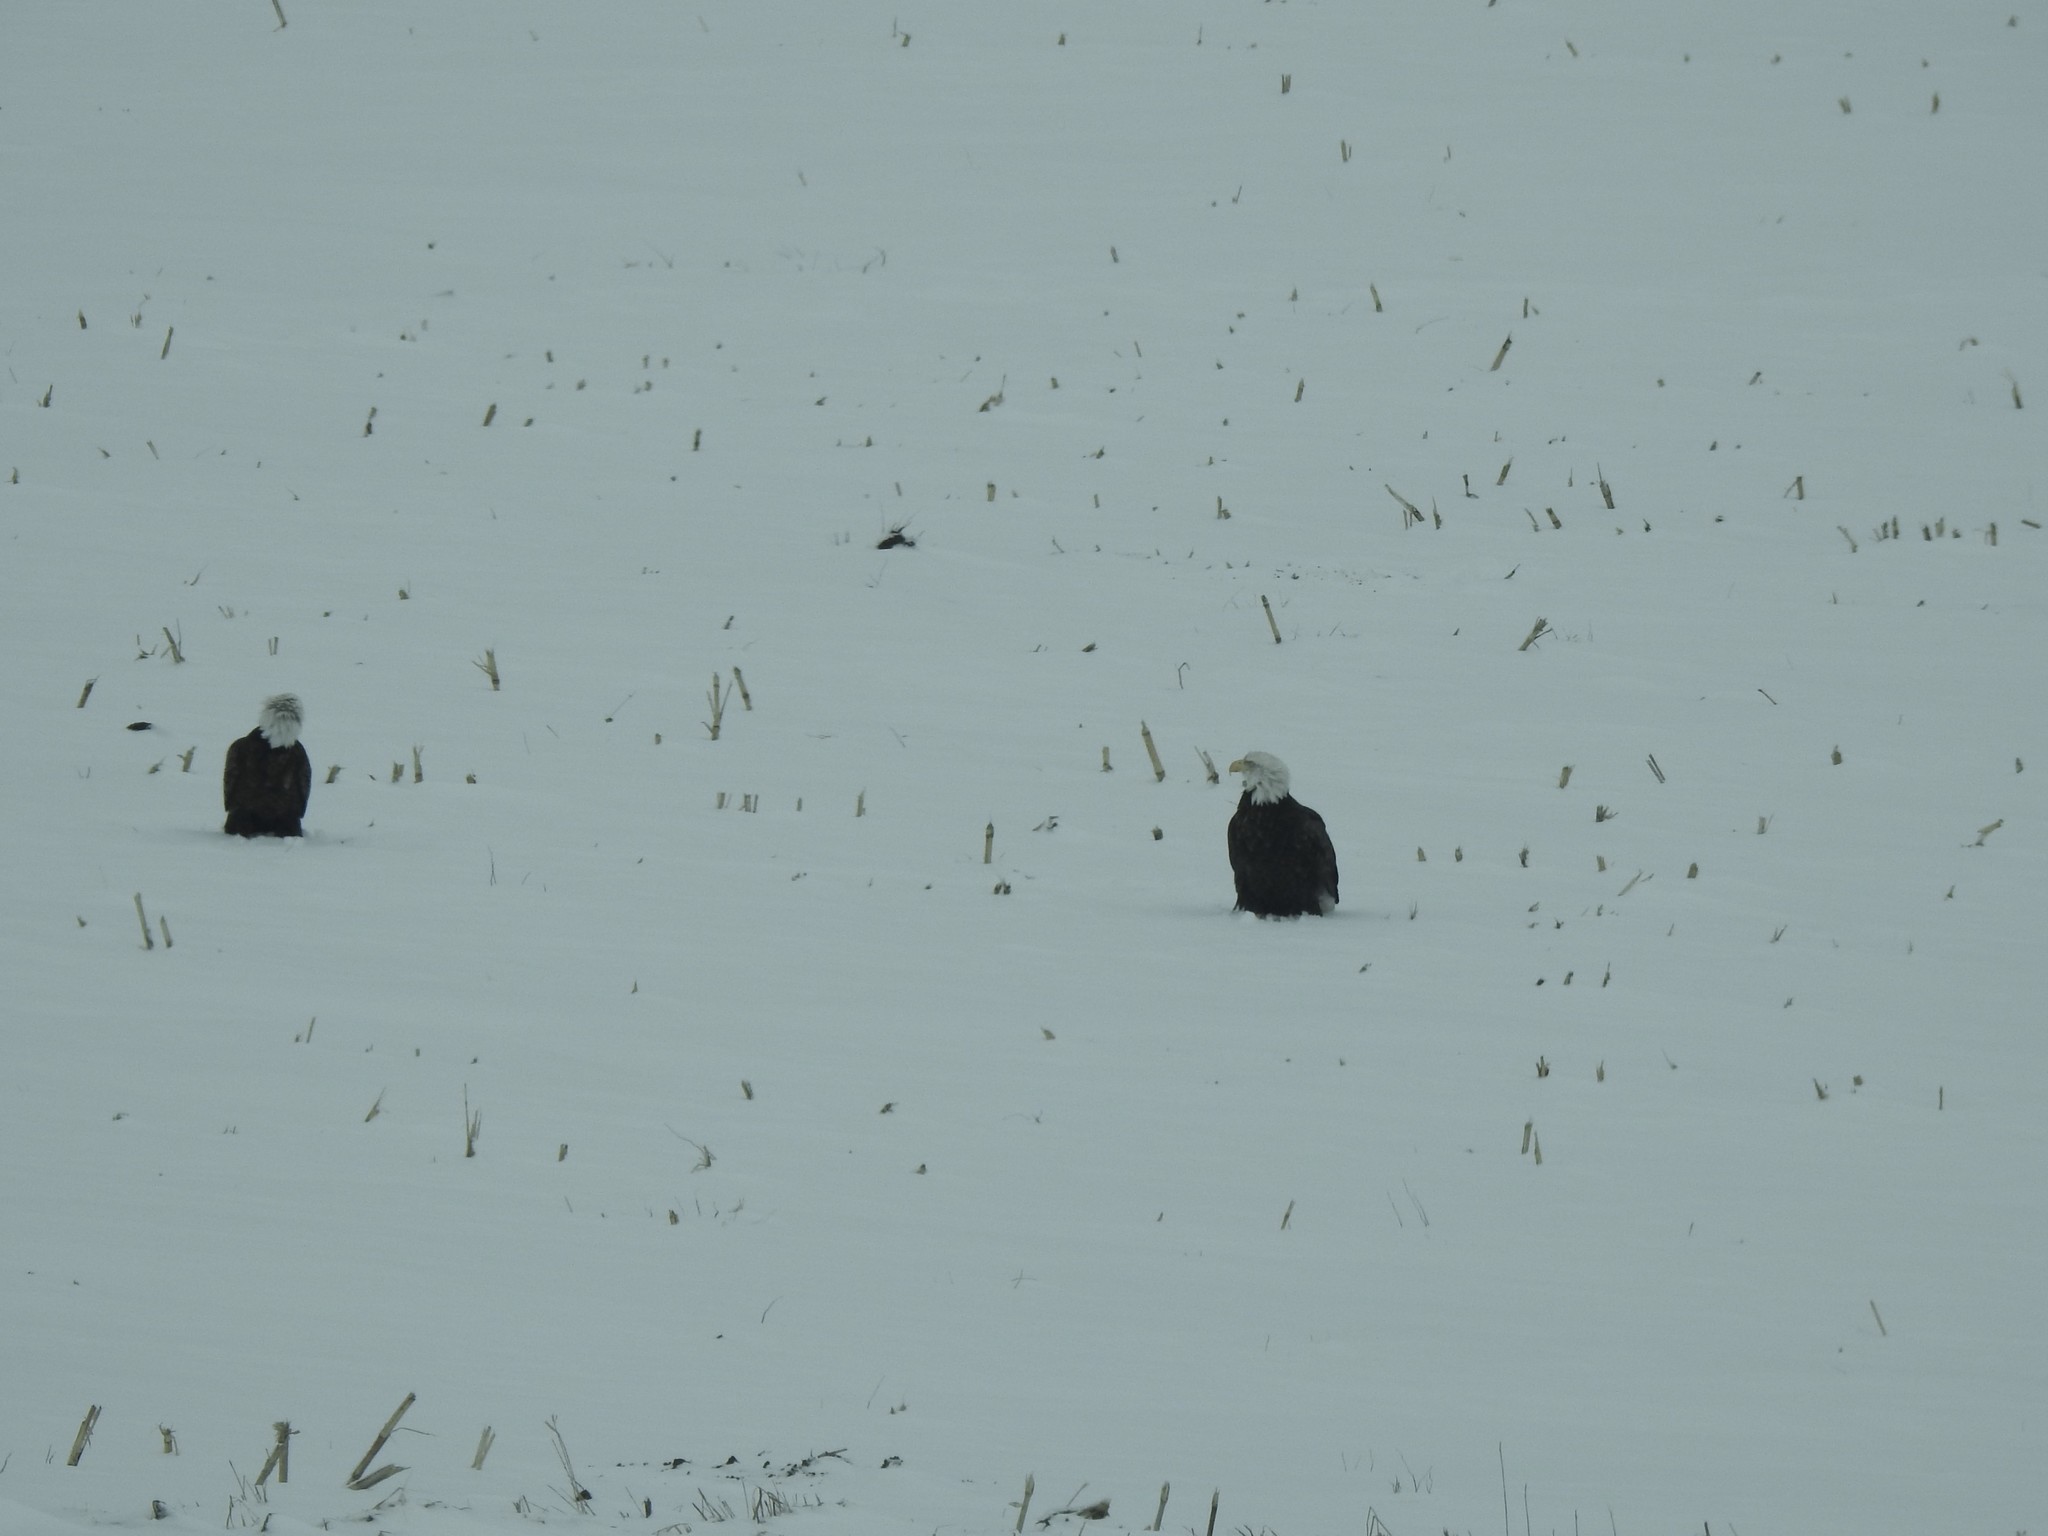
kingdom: Animalia
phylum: Chordata
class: Aves
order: Accipitriformes
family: Accipitridae
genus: Haliaeetus
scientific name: Haliaeetus leucocephalus
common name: Bald eagle
